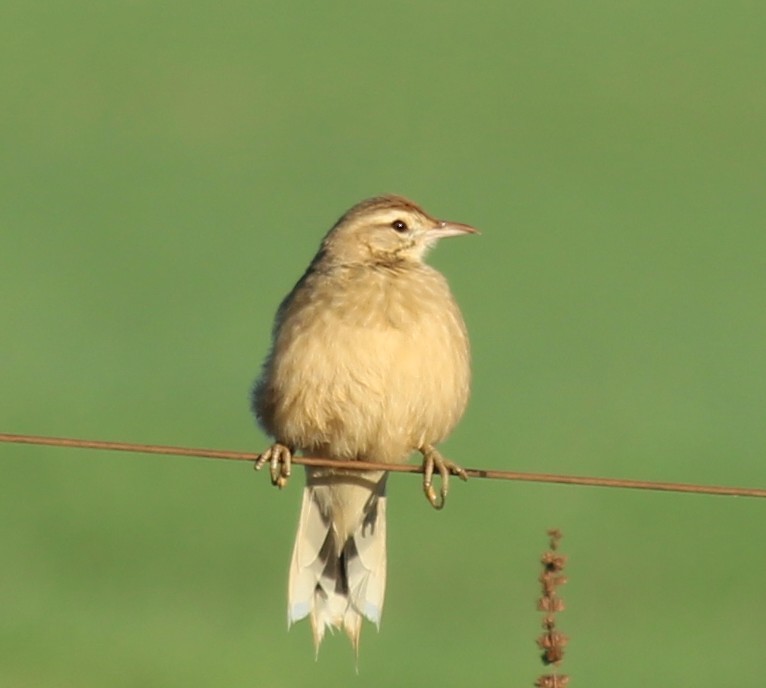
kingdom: Animalia
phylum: Chordata
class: Aves
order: Passeriformes
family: Furnariidae
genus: Anumbius
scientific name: Anumbius annumbi
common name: Firewood-gatherer
